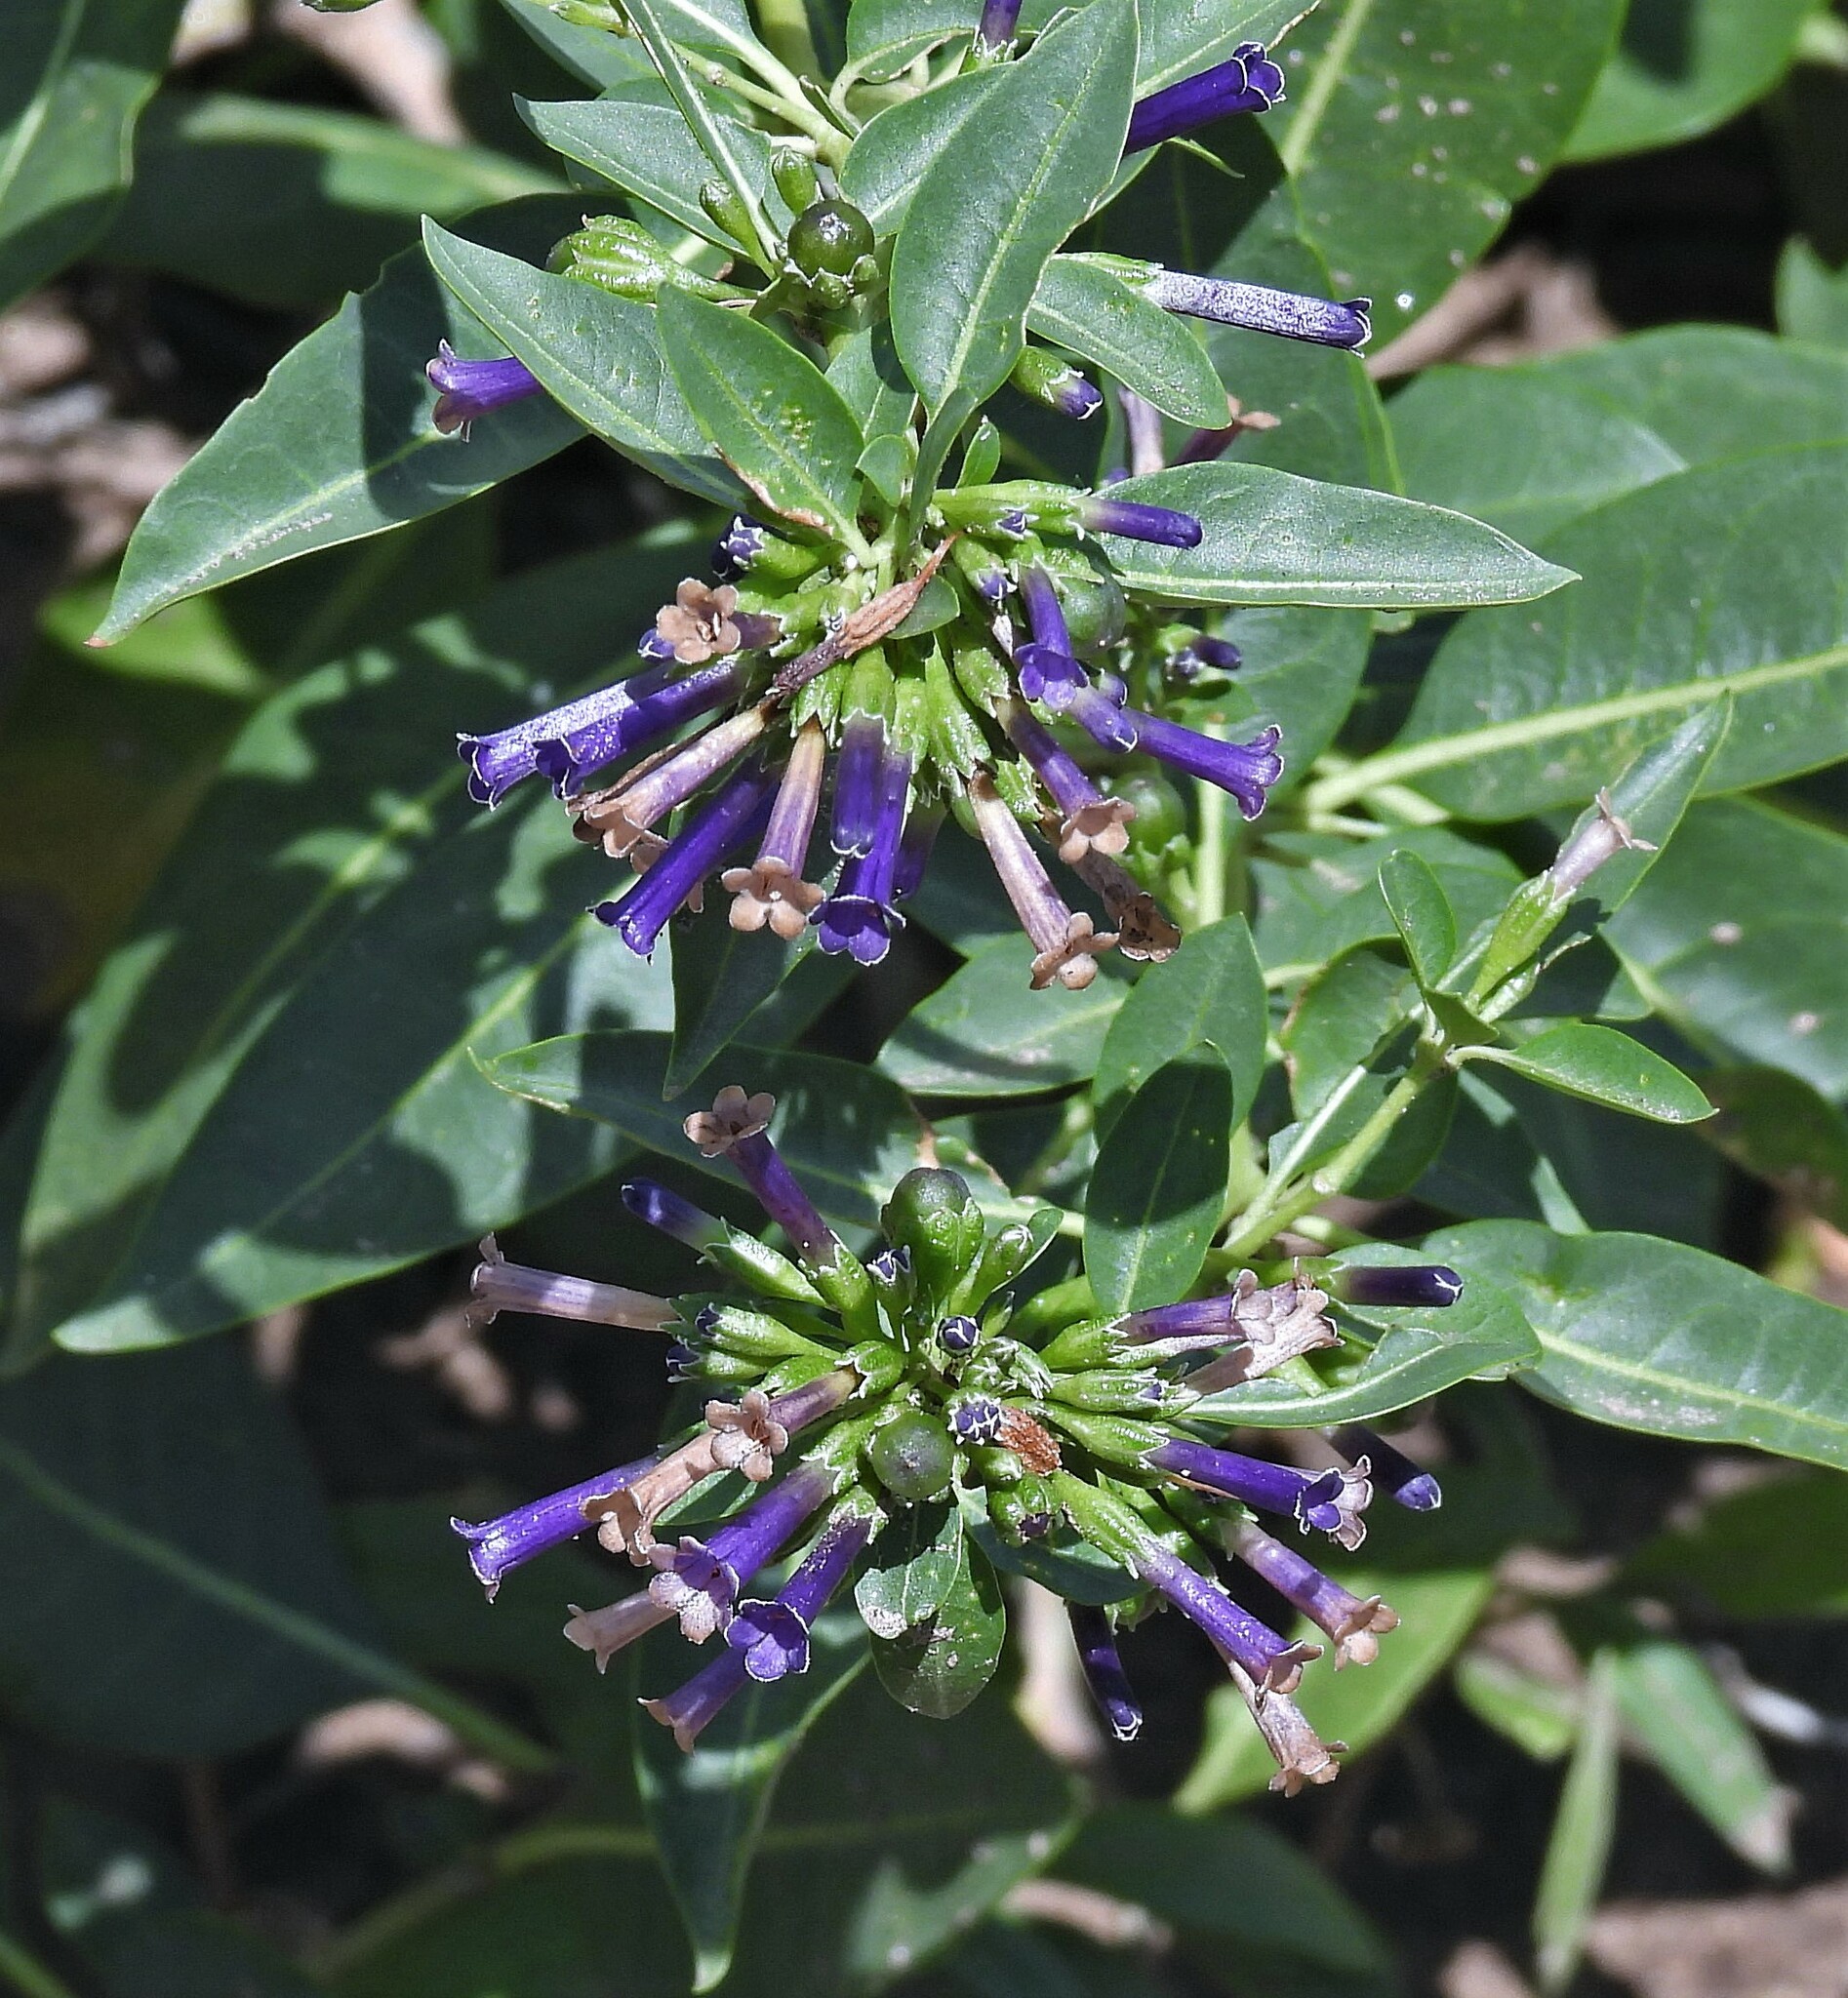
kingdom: Plantae
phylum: Tracheophyta
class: Magnoliopsida
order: Solanales
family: Solanaceae
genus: Lycium
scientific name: Lycium cestroides
